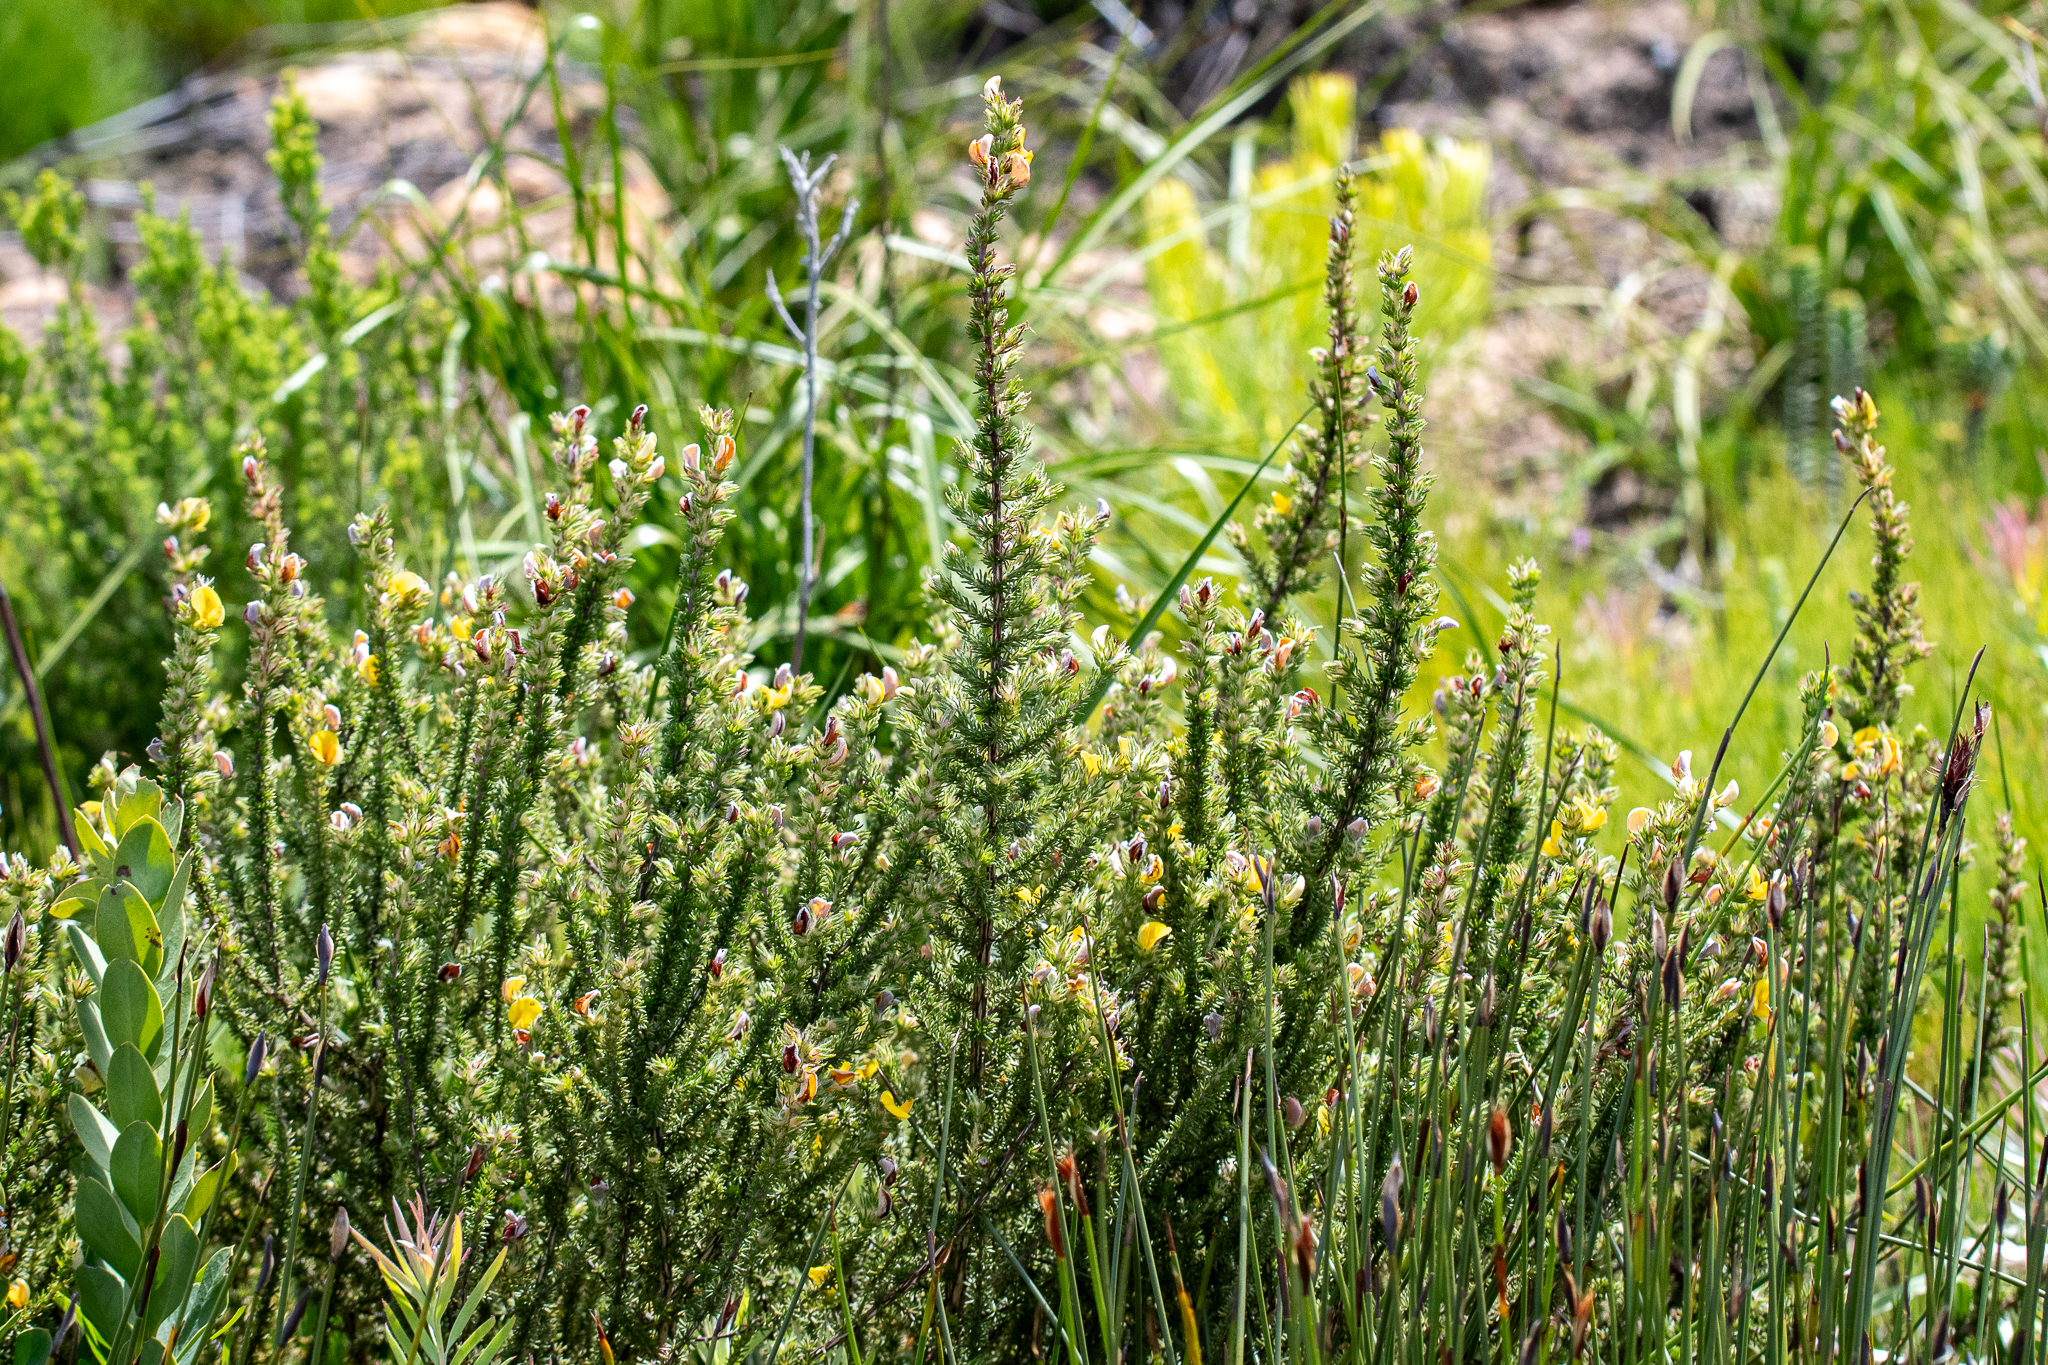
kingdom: Plantae
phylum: Tracheophyta
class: Magnoliopsida
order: Fabales
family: Fabaceae
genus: Aspalathus
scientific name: Aspalathus ciliaris
